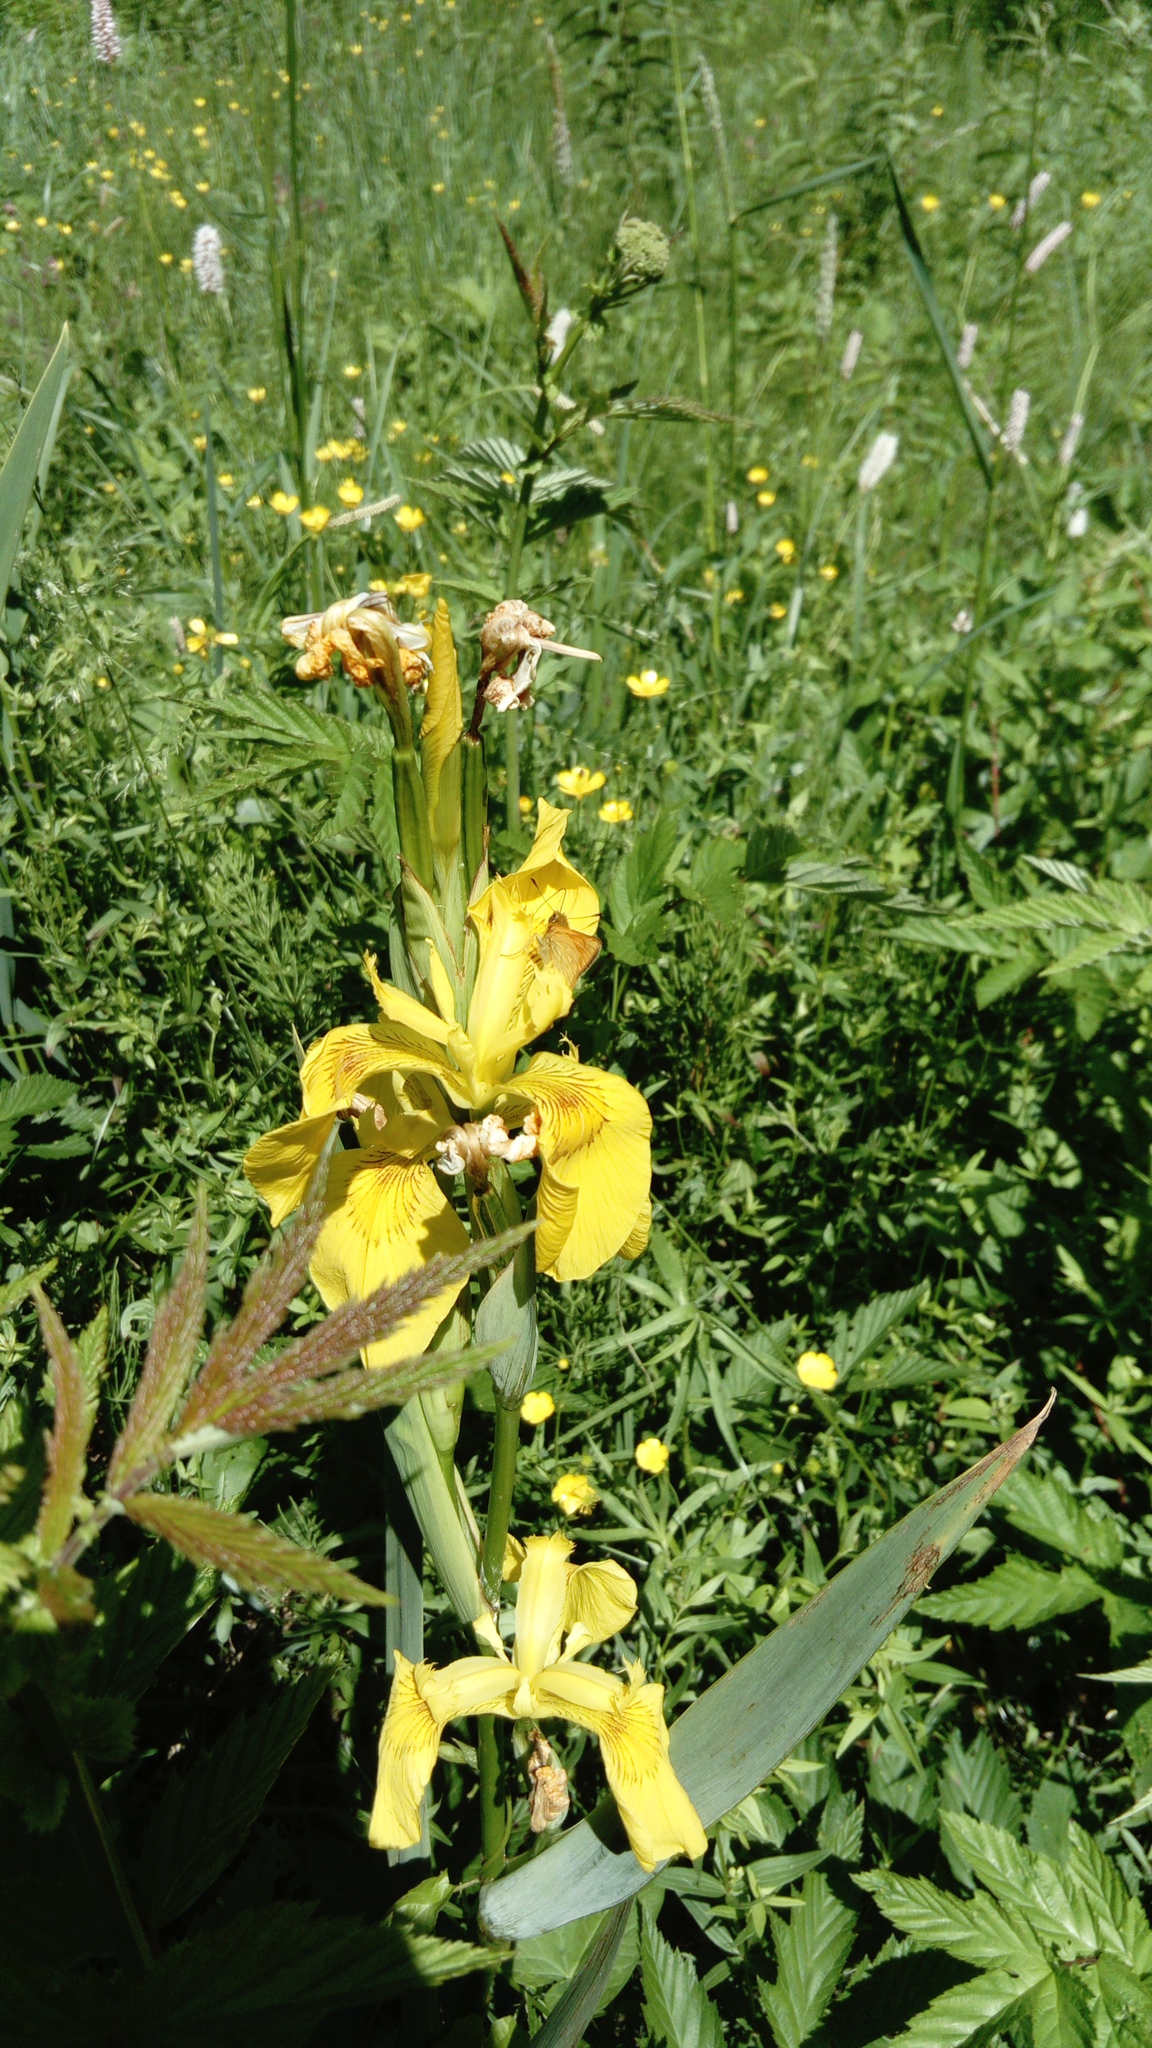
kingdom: Plantae
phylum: Tracheophyta
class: Liliopsida
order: Asparagales
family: Iridaceae
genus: Iris
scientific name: Iris pseudacorus
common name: Yellow flag
